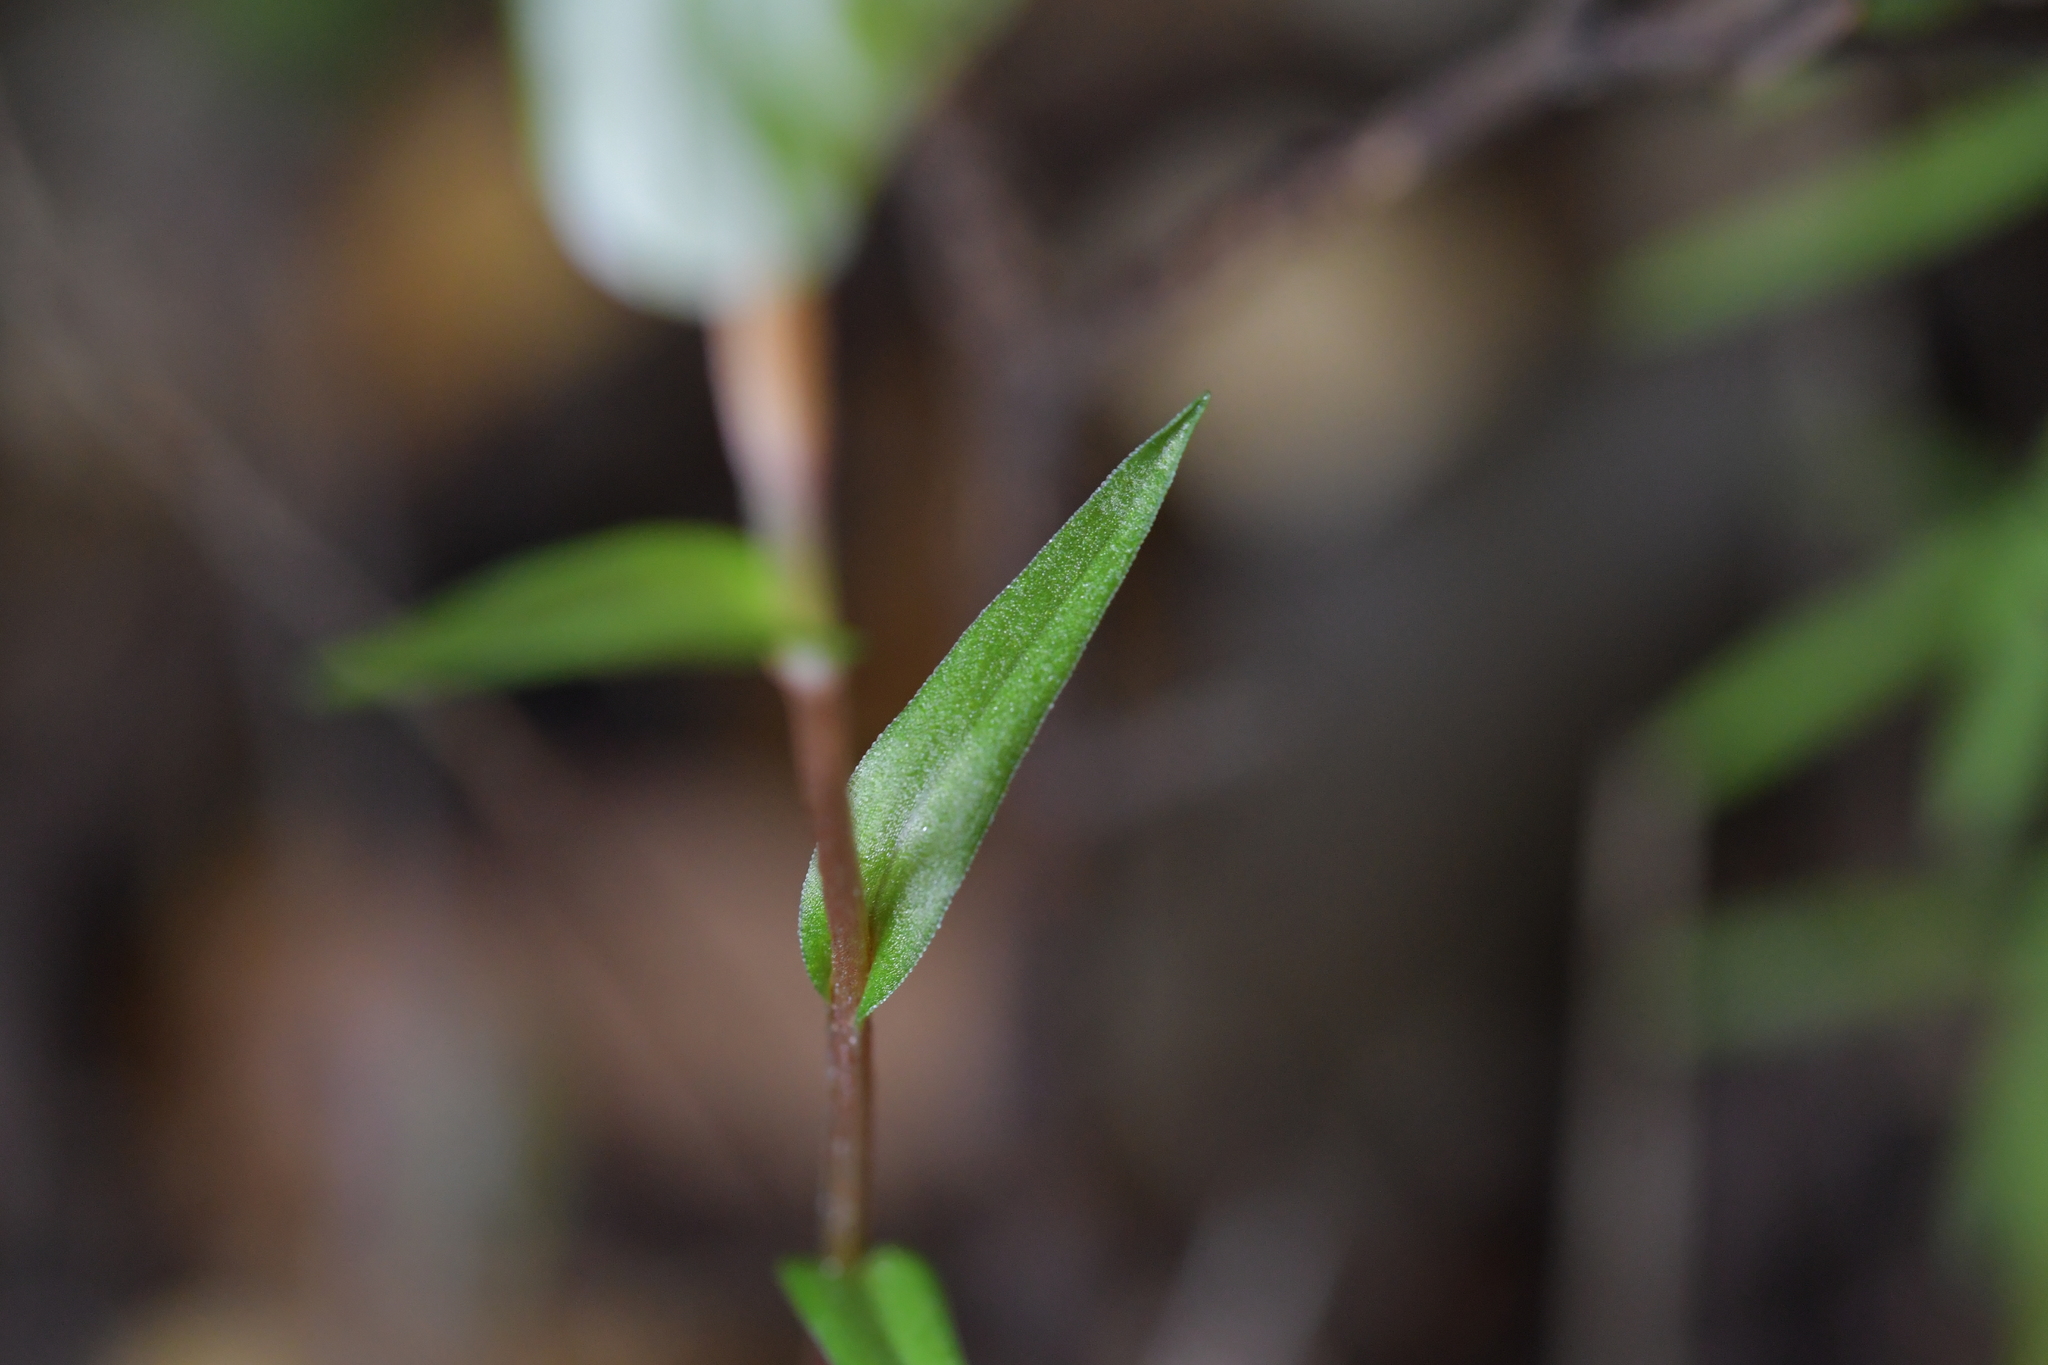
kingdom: Plantae
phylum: Tracheophyta
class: Liliopsida
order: Asparagales
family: Orchidaceae
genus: Pterostylis
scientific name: Pterostylis alobula
